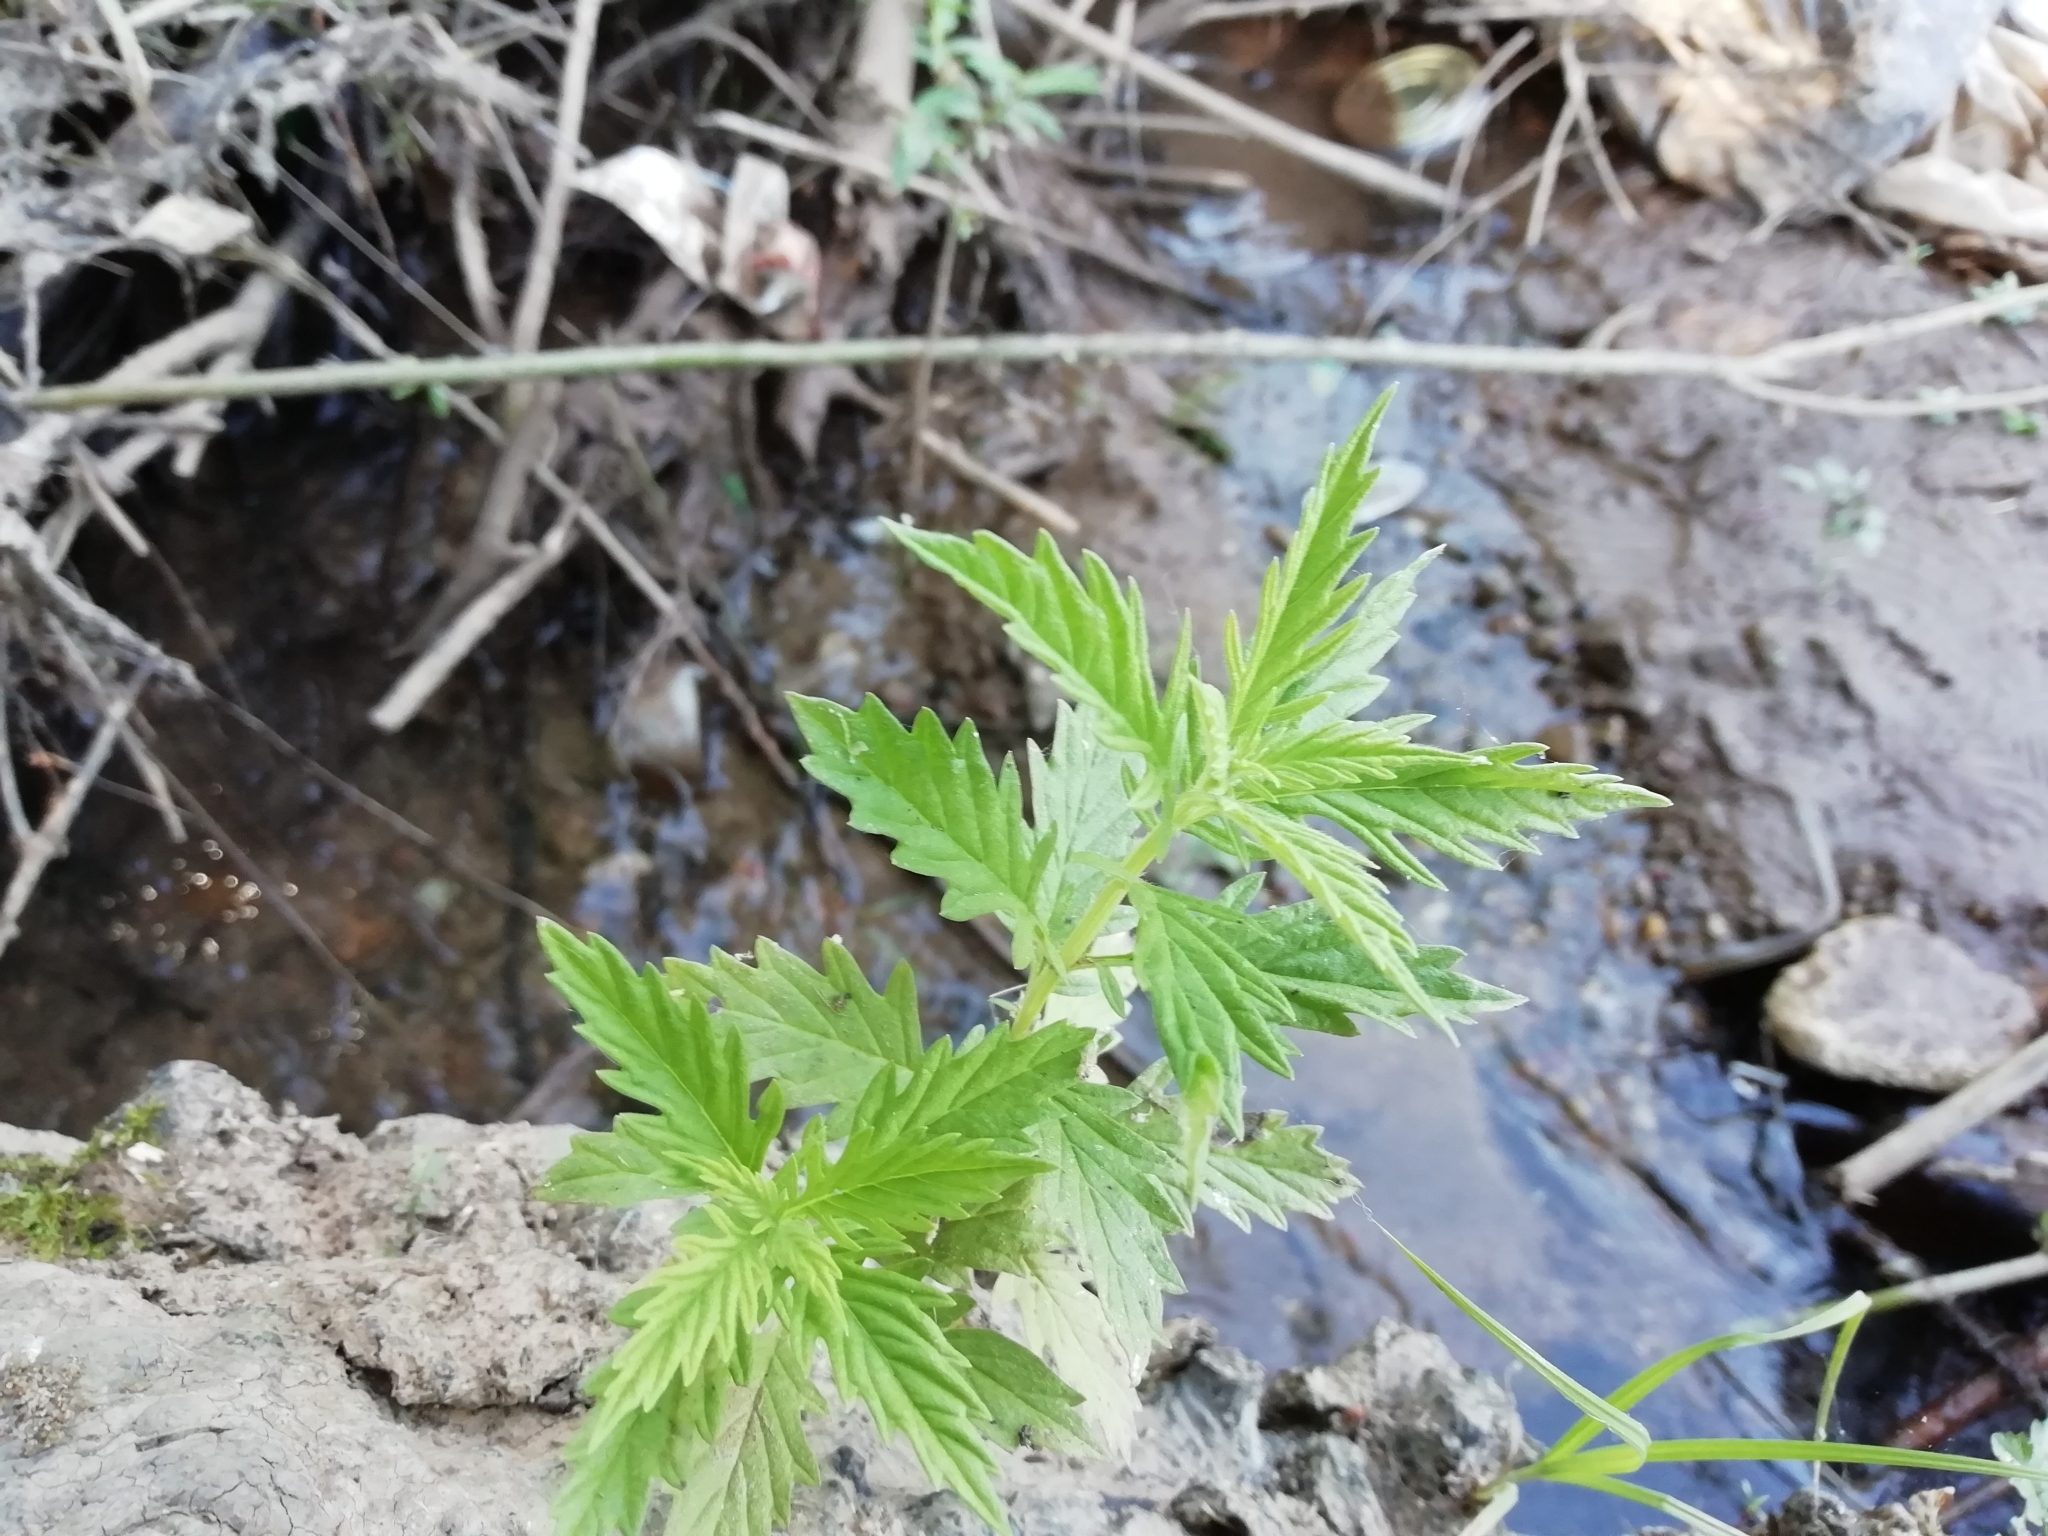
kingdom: Plantae
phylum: Tracheophyta
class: Magnoliopsida
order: Lamiales
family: Lamiaceae
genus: Lycopus
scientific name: Lycopus europaeus
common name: European bugleweed
